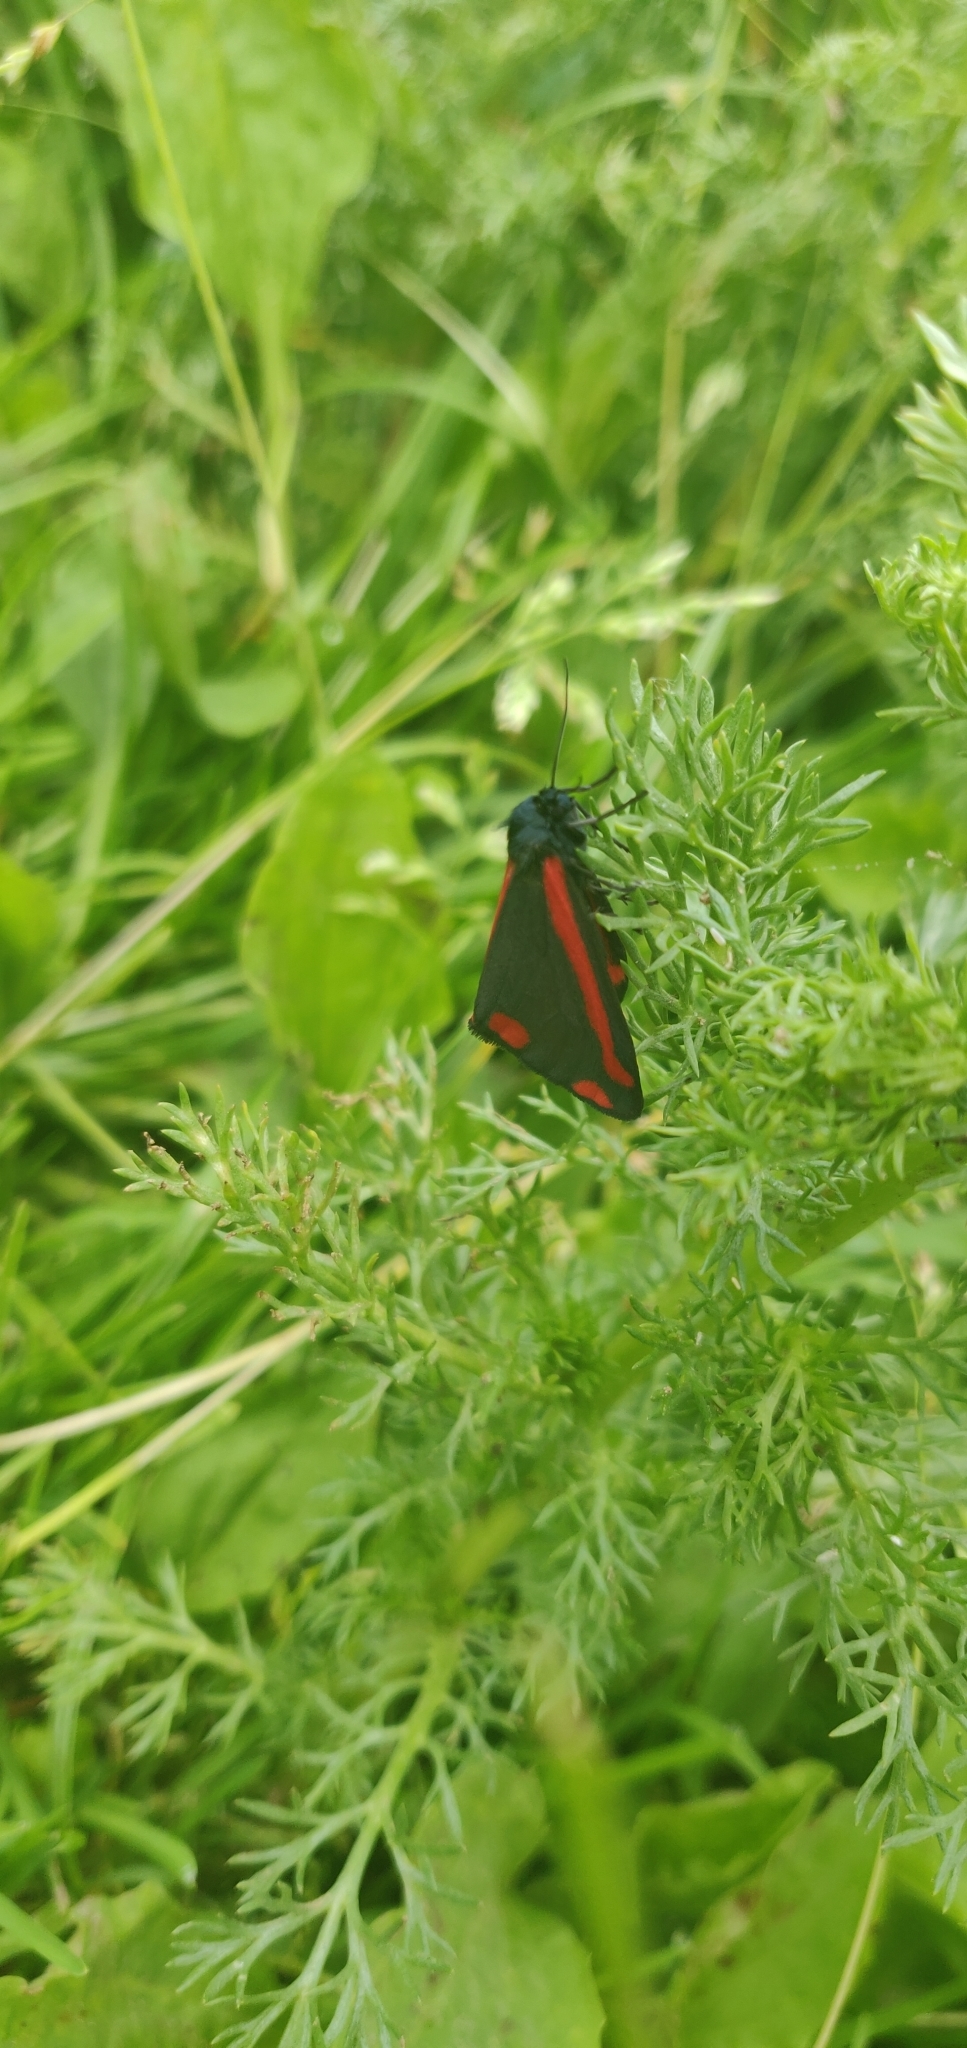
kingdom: Animalia
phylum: Arthropoda
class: Insecta
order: Lepidoptera
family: Erebidae
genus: Tyria
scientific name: Tyria jacobaeae
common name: Cinnabar
